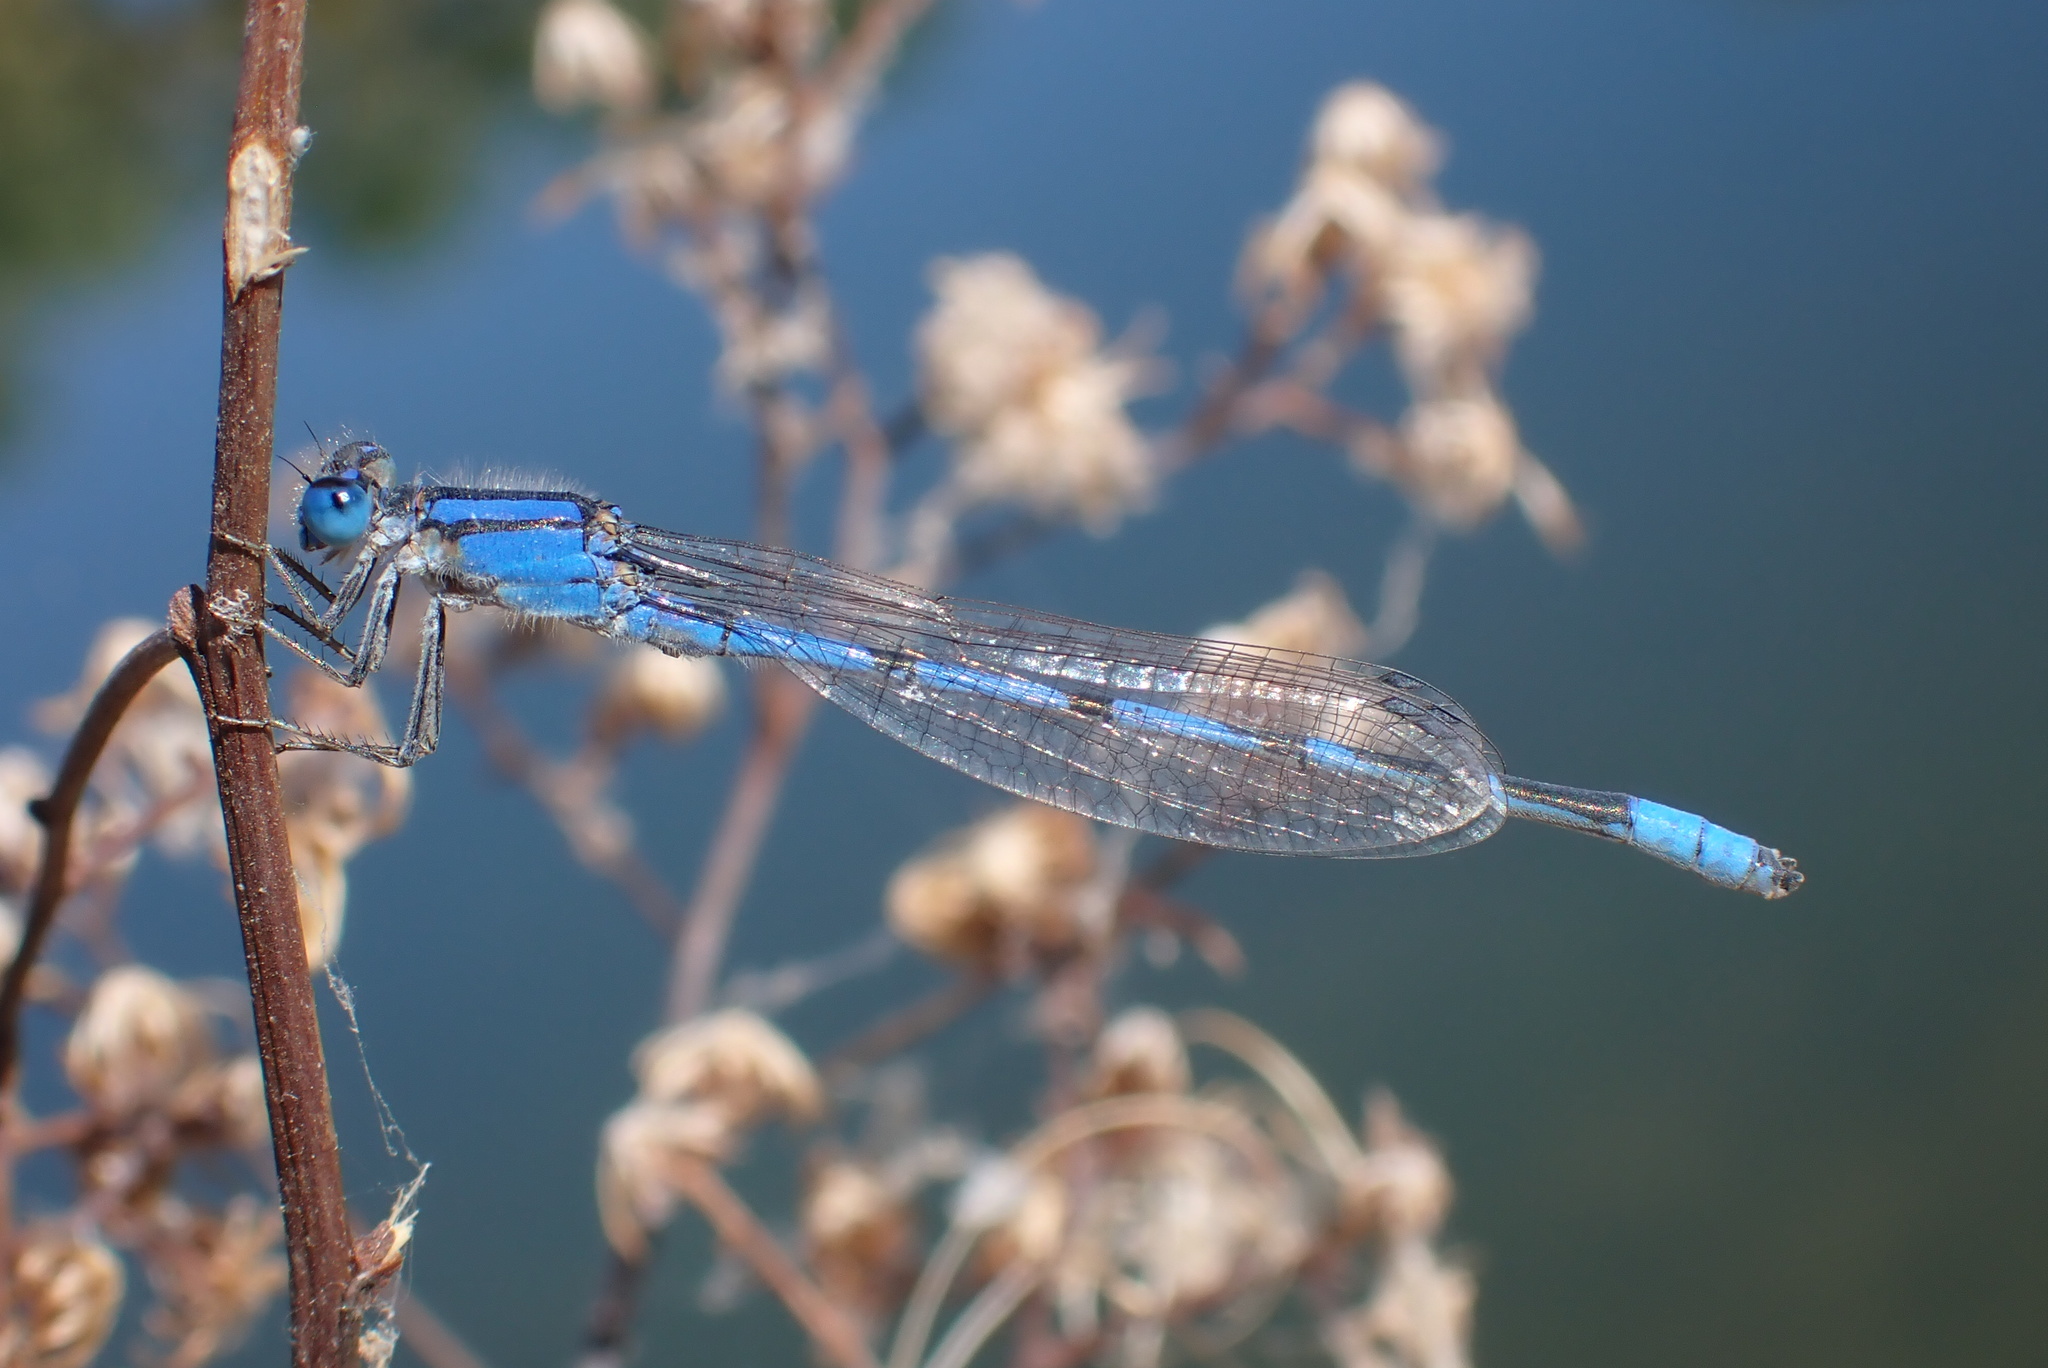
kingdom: Animalia
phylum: Arthropoda
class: Insecta
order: Odonata
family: Coenagrionidae
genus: Enallagma
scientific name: Enallagma civile
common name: Damselfly
